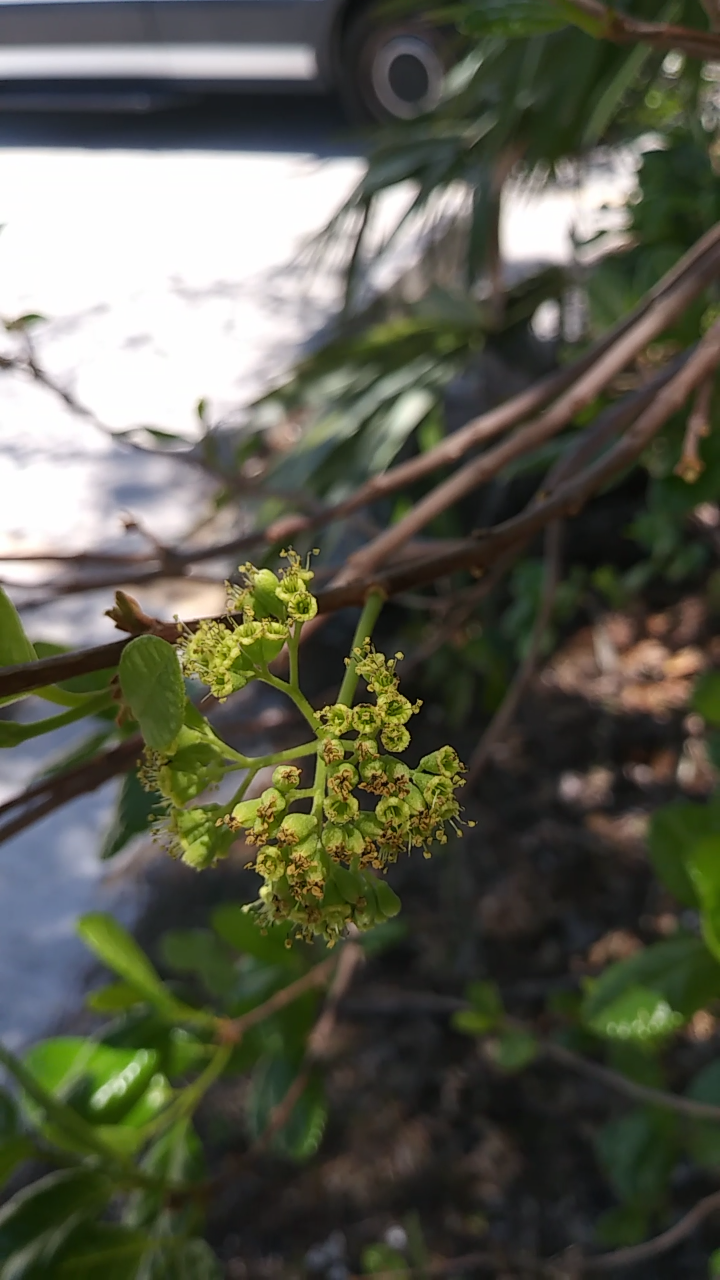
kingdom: Plantae
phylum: Tracheophyta
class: Magnoliopsida
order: Brassicales
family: Capparaceae
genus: Cynophalla
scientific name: Cynophalla flexuosa
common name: Capertree
